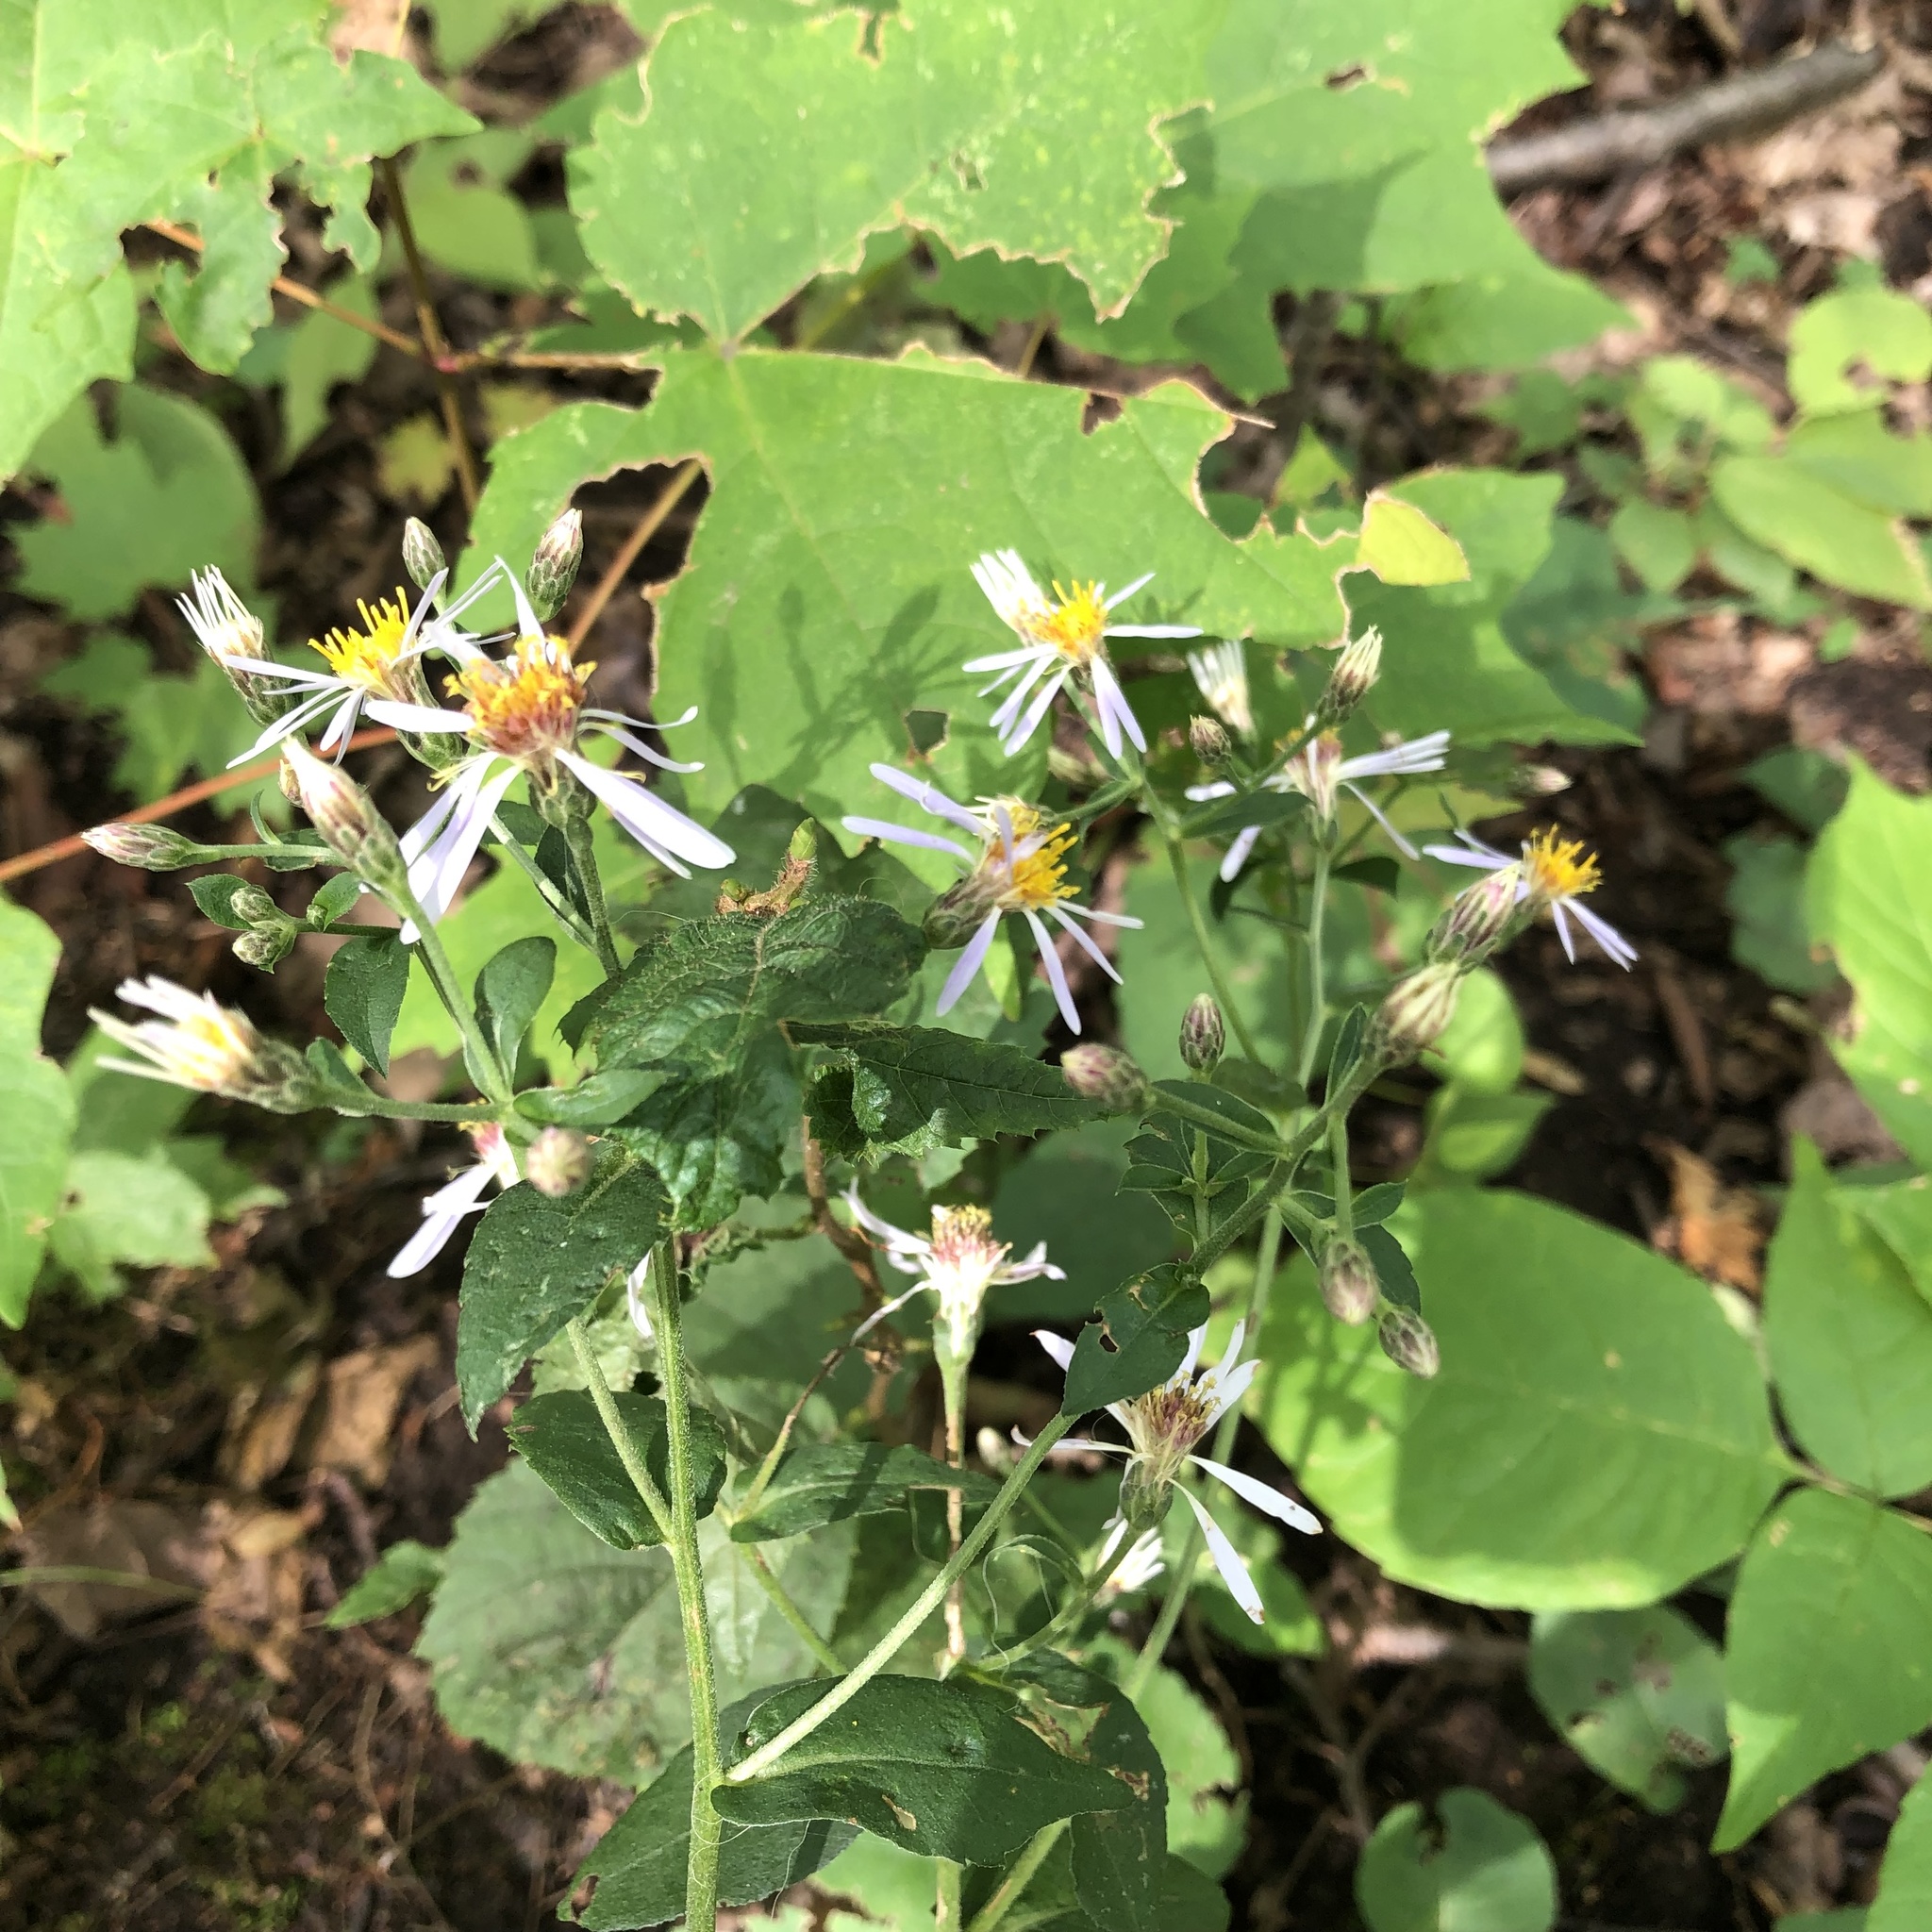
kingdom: Plantae
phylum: Tracheophyta
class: Magnoliopsida
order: Asterales
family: Asteraceae
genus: Eurybia
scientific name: Eurybia macrophylla
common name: Big-leaved aster
